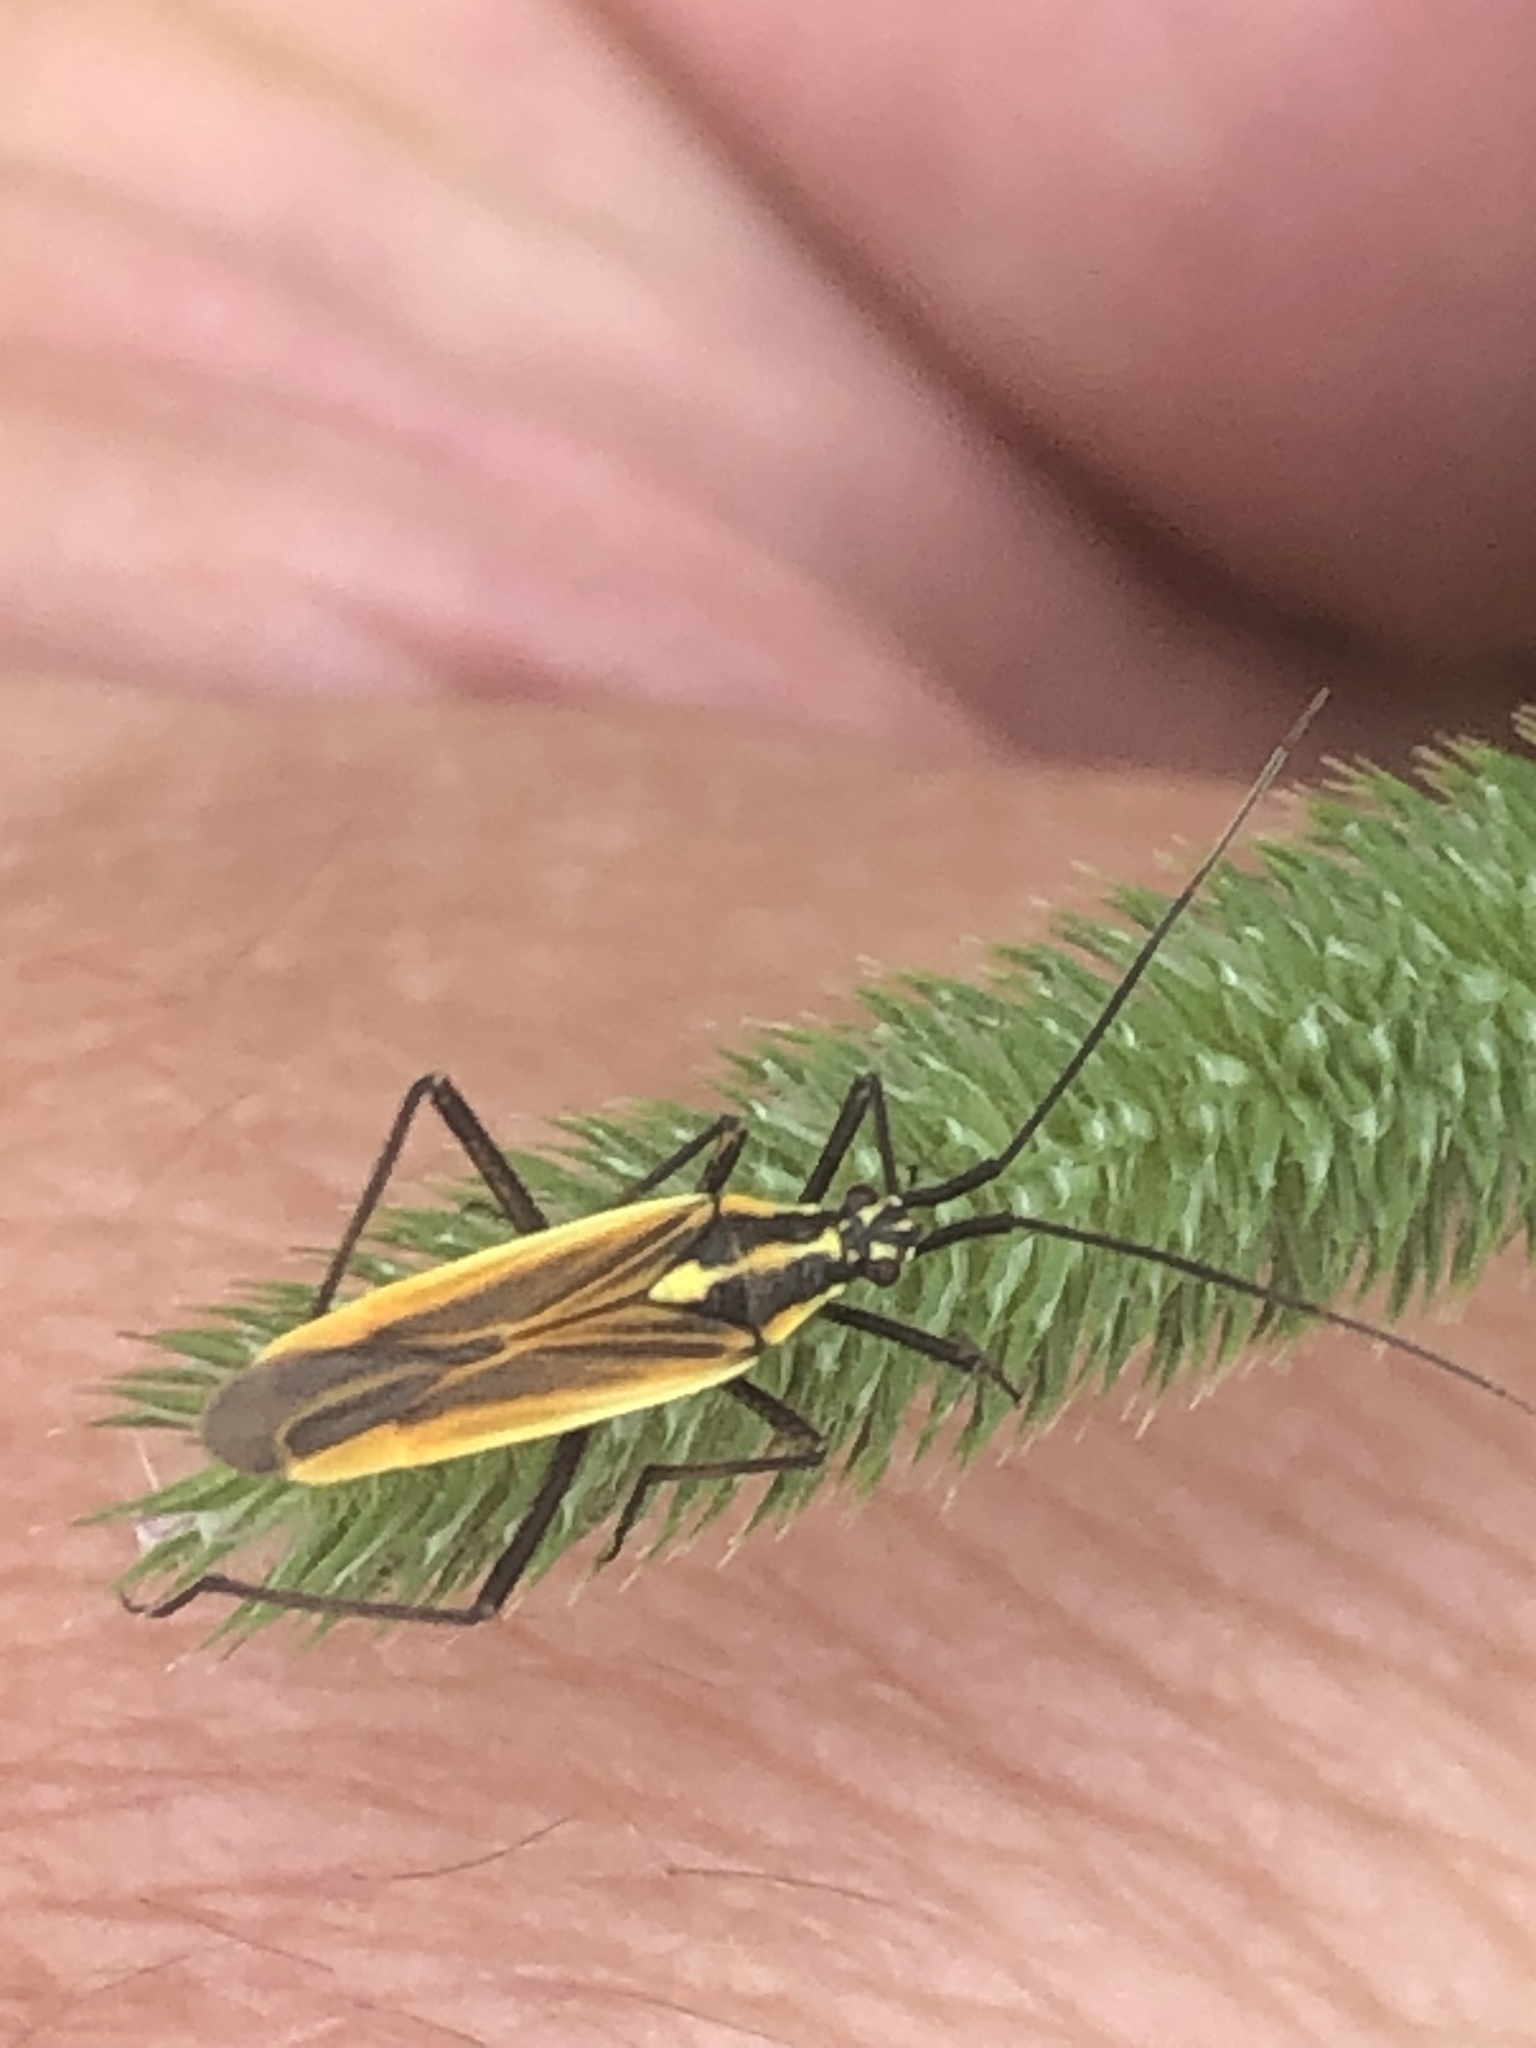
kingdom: Animalia
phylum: Arthropoda
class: Insecta
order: Hemiptera
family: Miridae
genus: Leptopterna
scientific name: Leptopterna dolabrata
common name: Meadow plant bug
